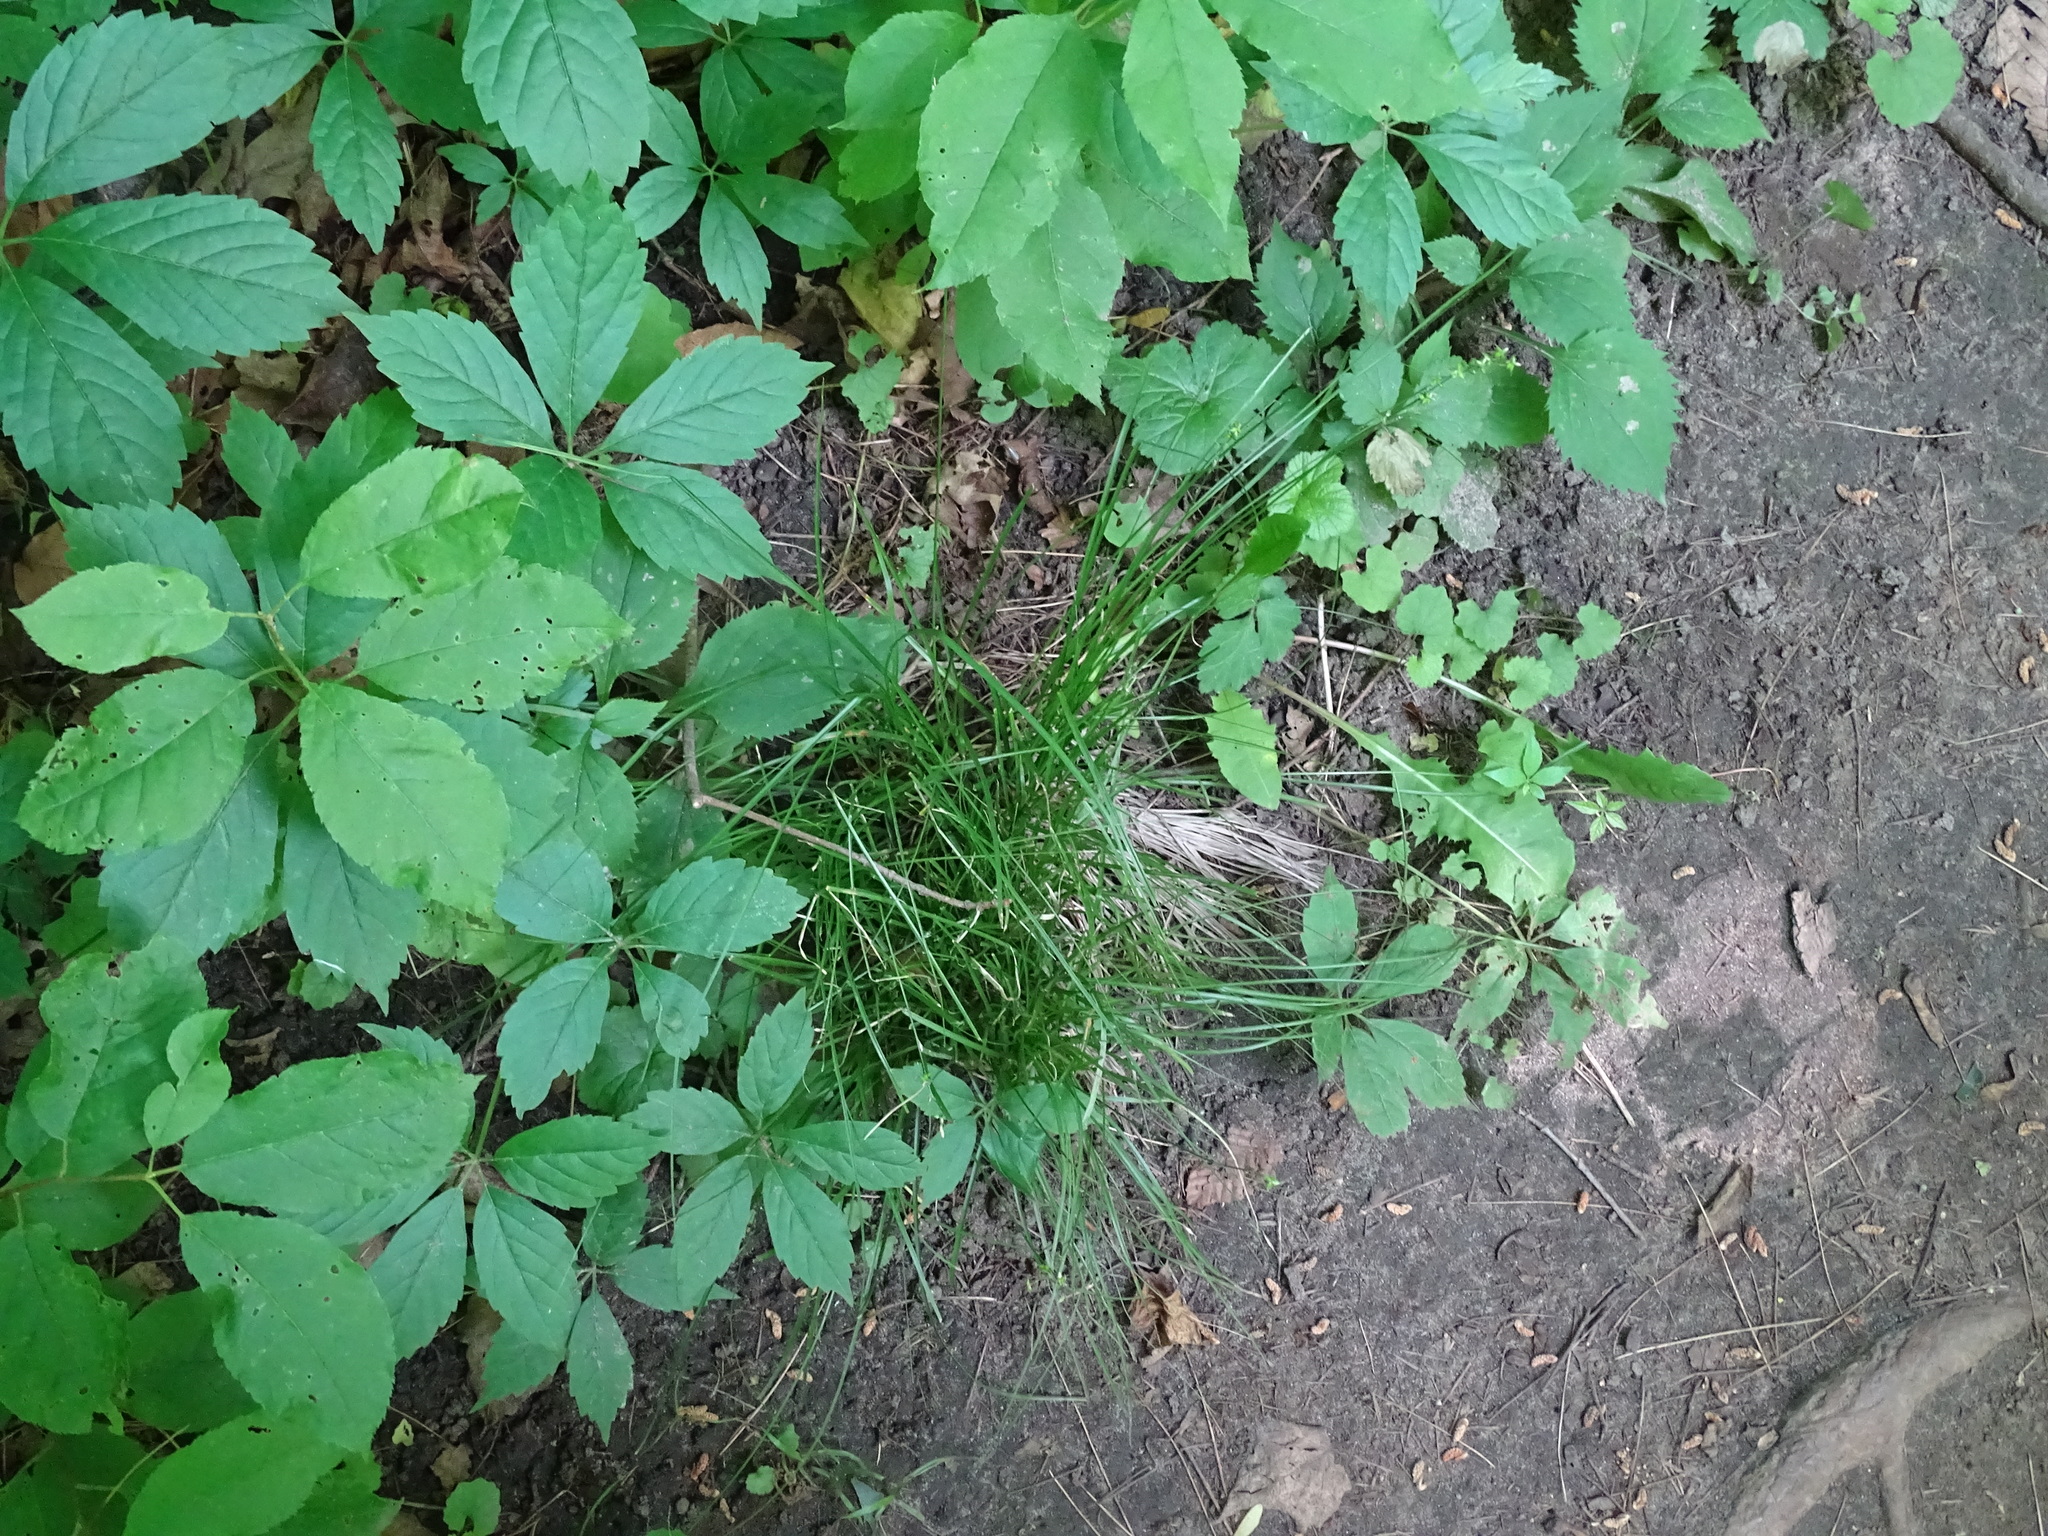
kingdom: Plantae
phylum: Tracheophyta
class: Liliopsida
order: Poales
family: Cyperaceae
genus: Carex
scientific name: Carex rosea
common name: Curly-styled wood sedge
